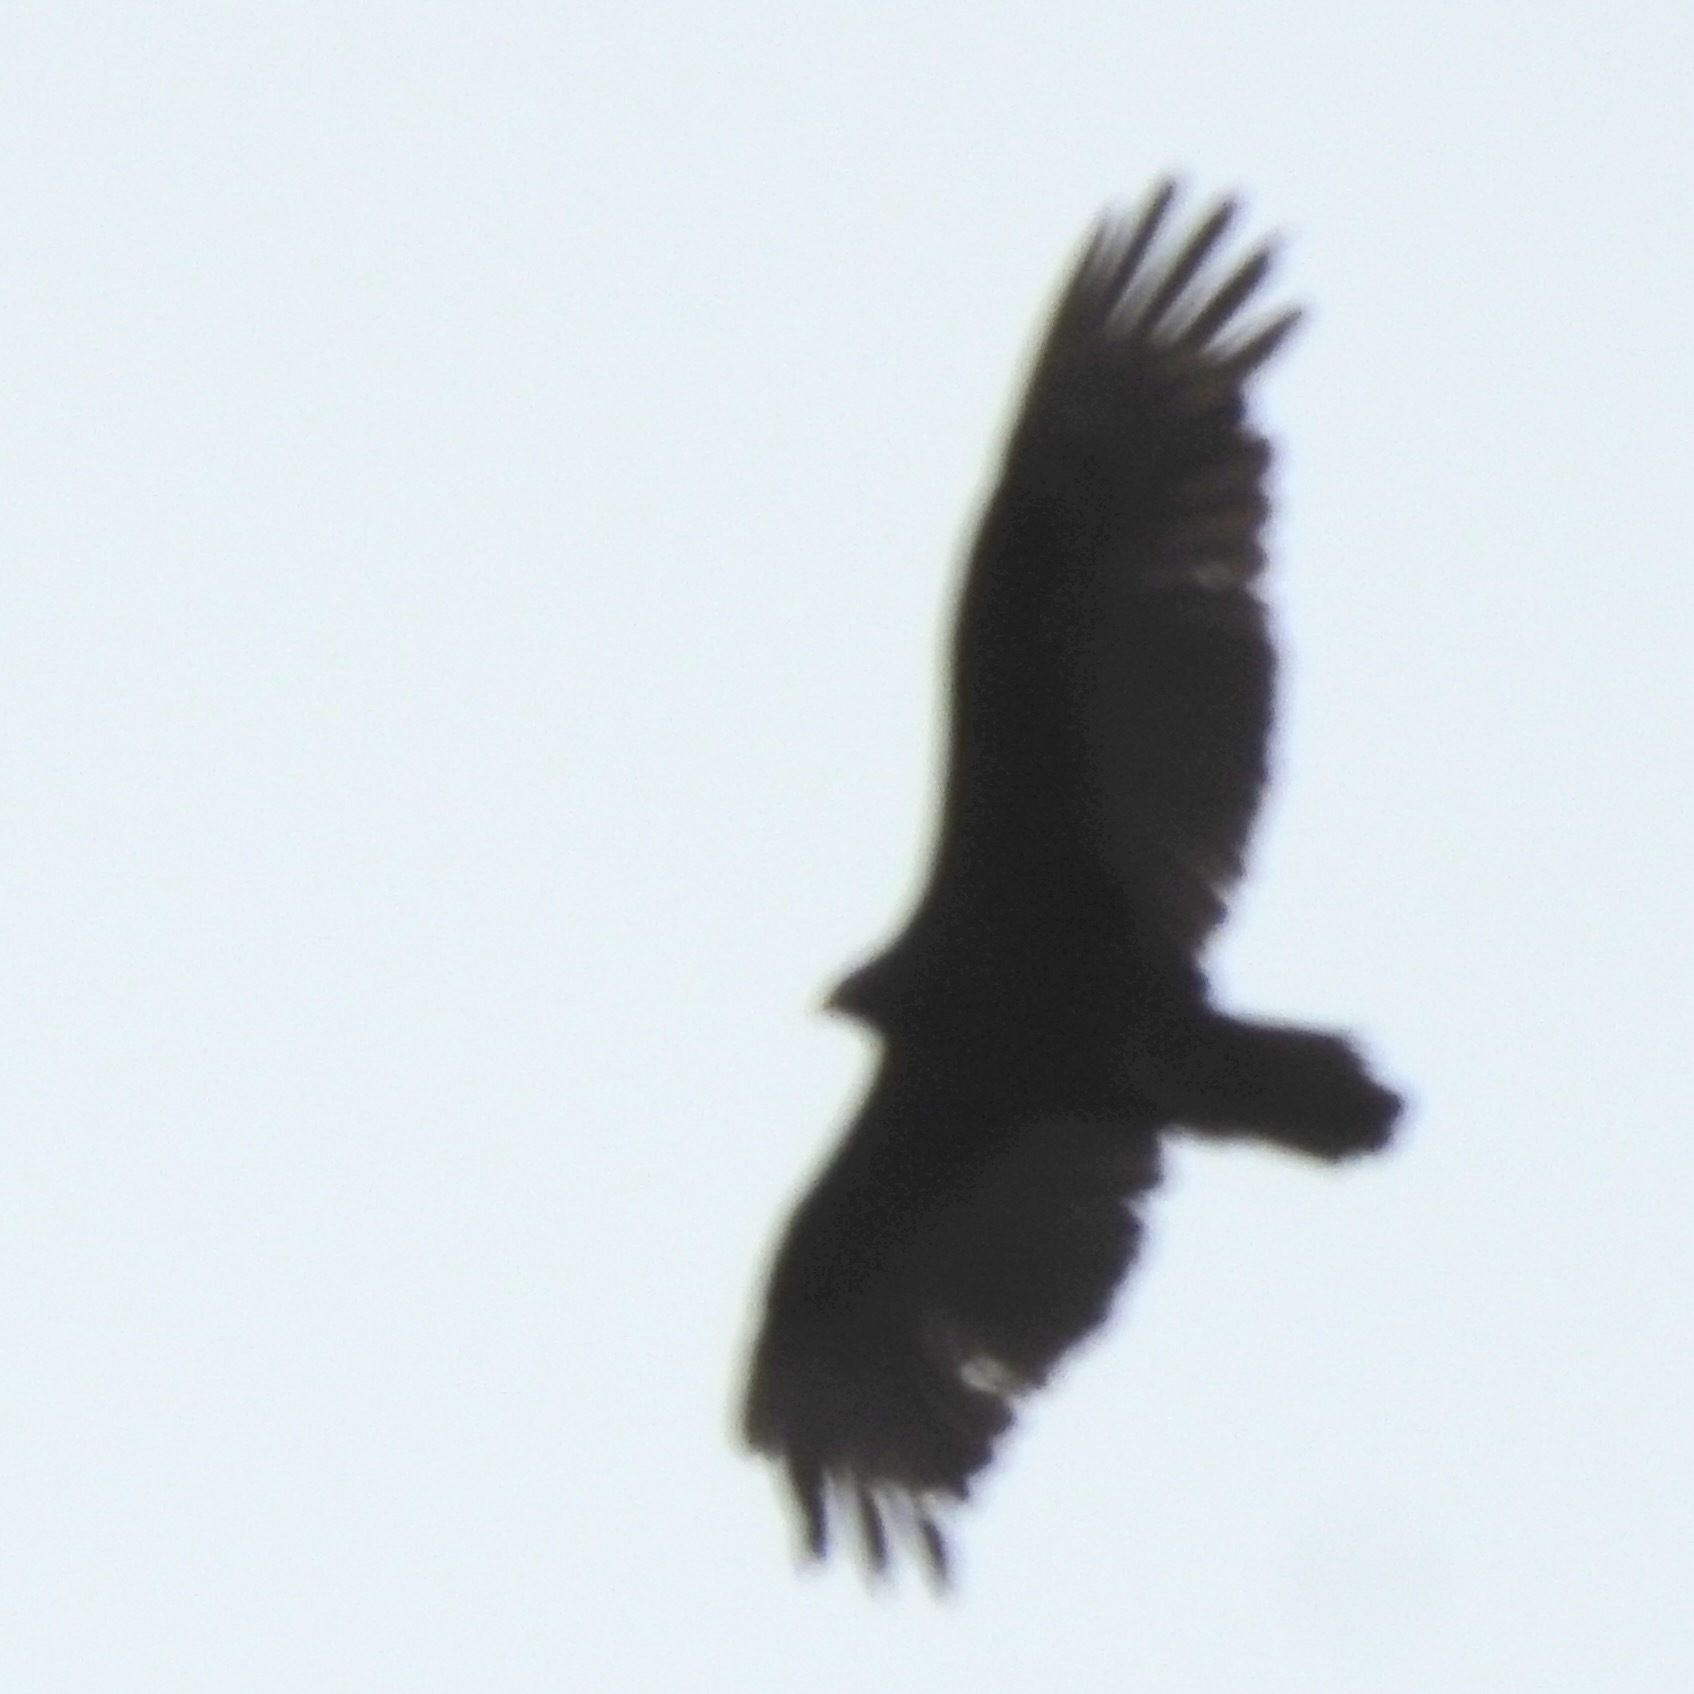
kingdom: Animalia
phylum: Chordata
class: Aves
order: Accipitriformes
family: Cathartidae
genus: Cathartes
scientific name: Cathartes aura
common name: Turkey vulture
